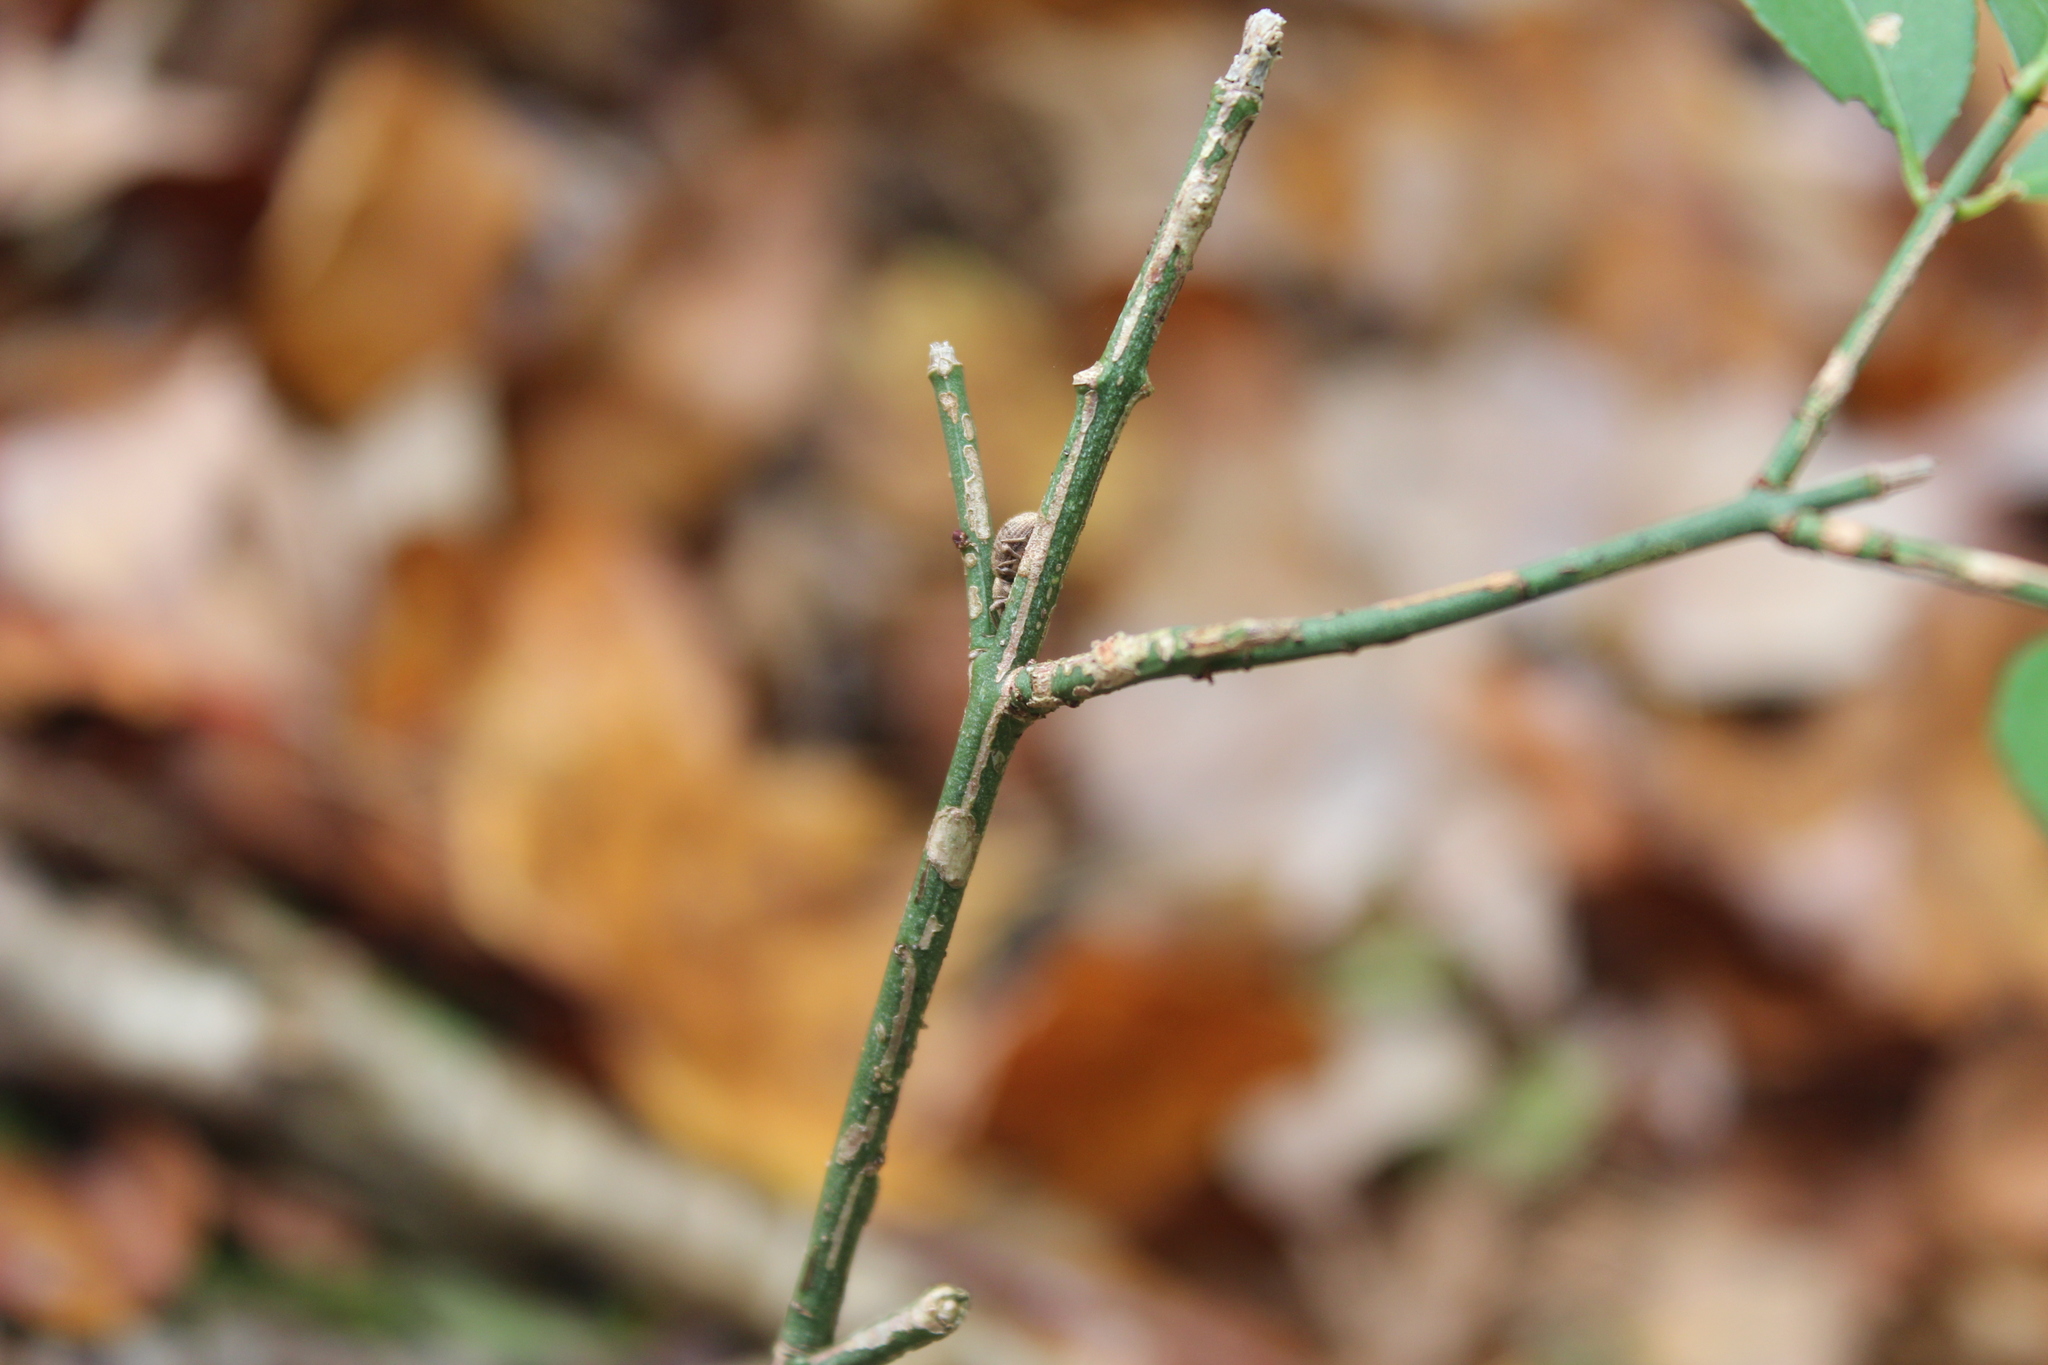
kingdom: Plantae
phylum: Tracheophyta
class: Magnoliopsida
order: Celastrales
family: Celastraceae
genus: Euonymus
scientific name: Euonymus alatus
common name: Winged euonymus
